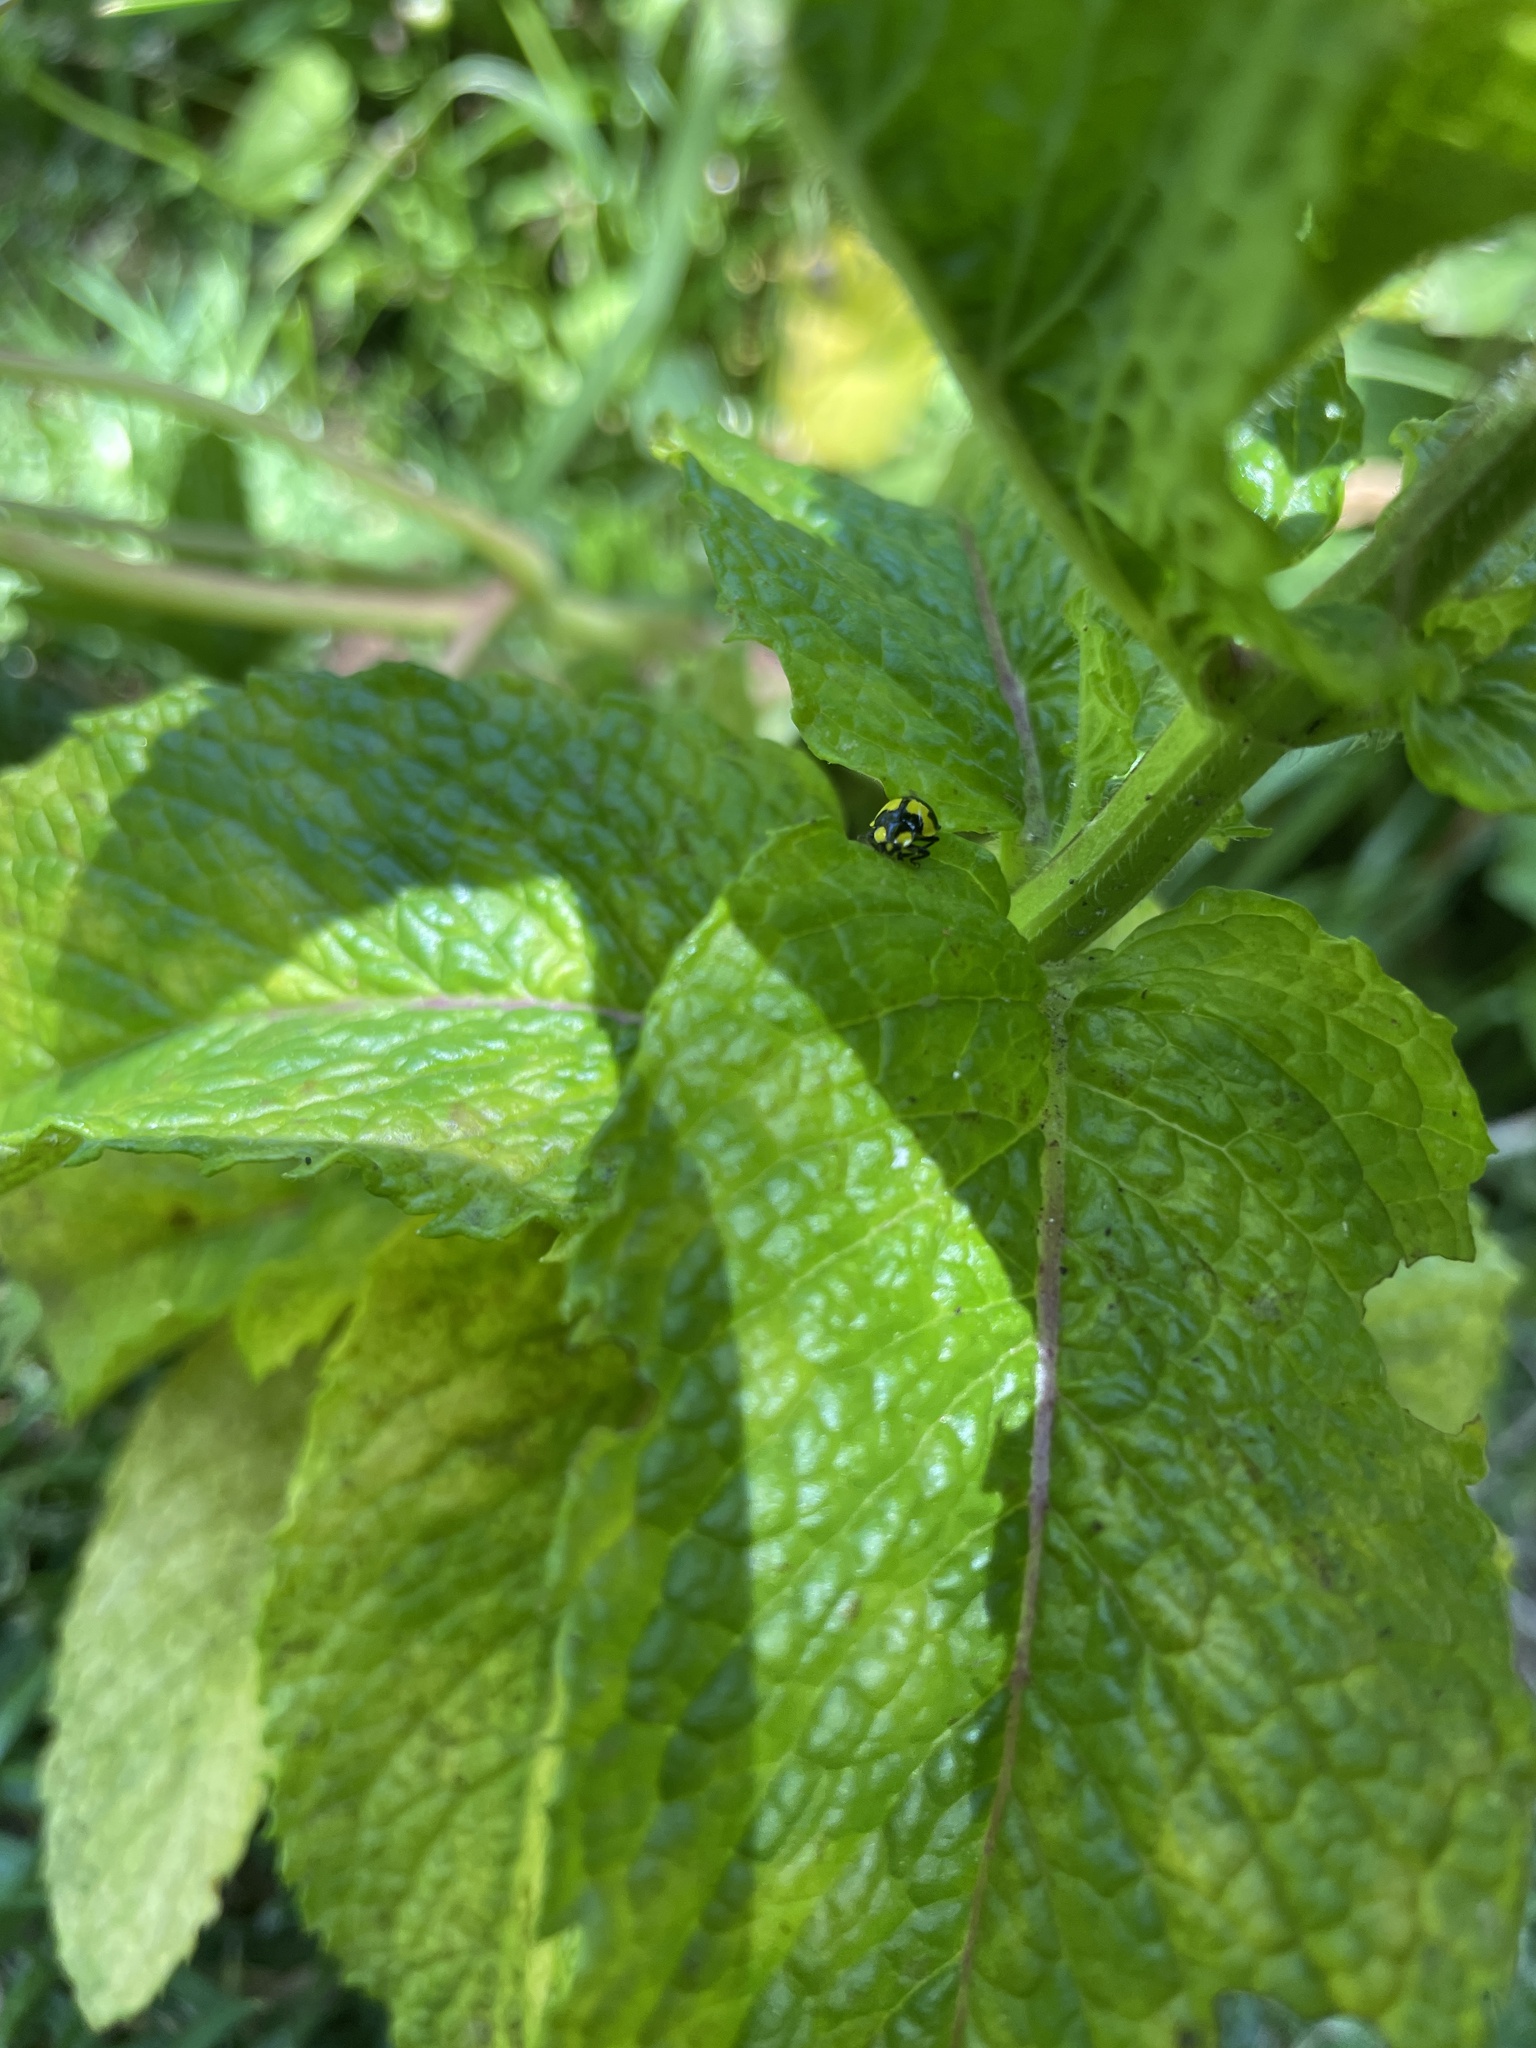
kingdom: Animalia
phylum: Arthropoda
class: Insecta
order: Coleoptera
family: Coccinellidae
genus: Illeis
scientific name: Illeis galbula
